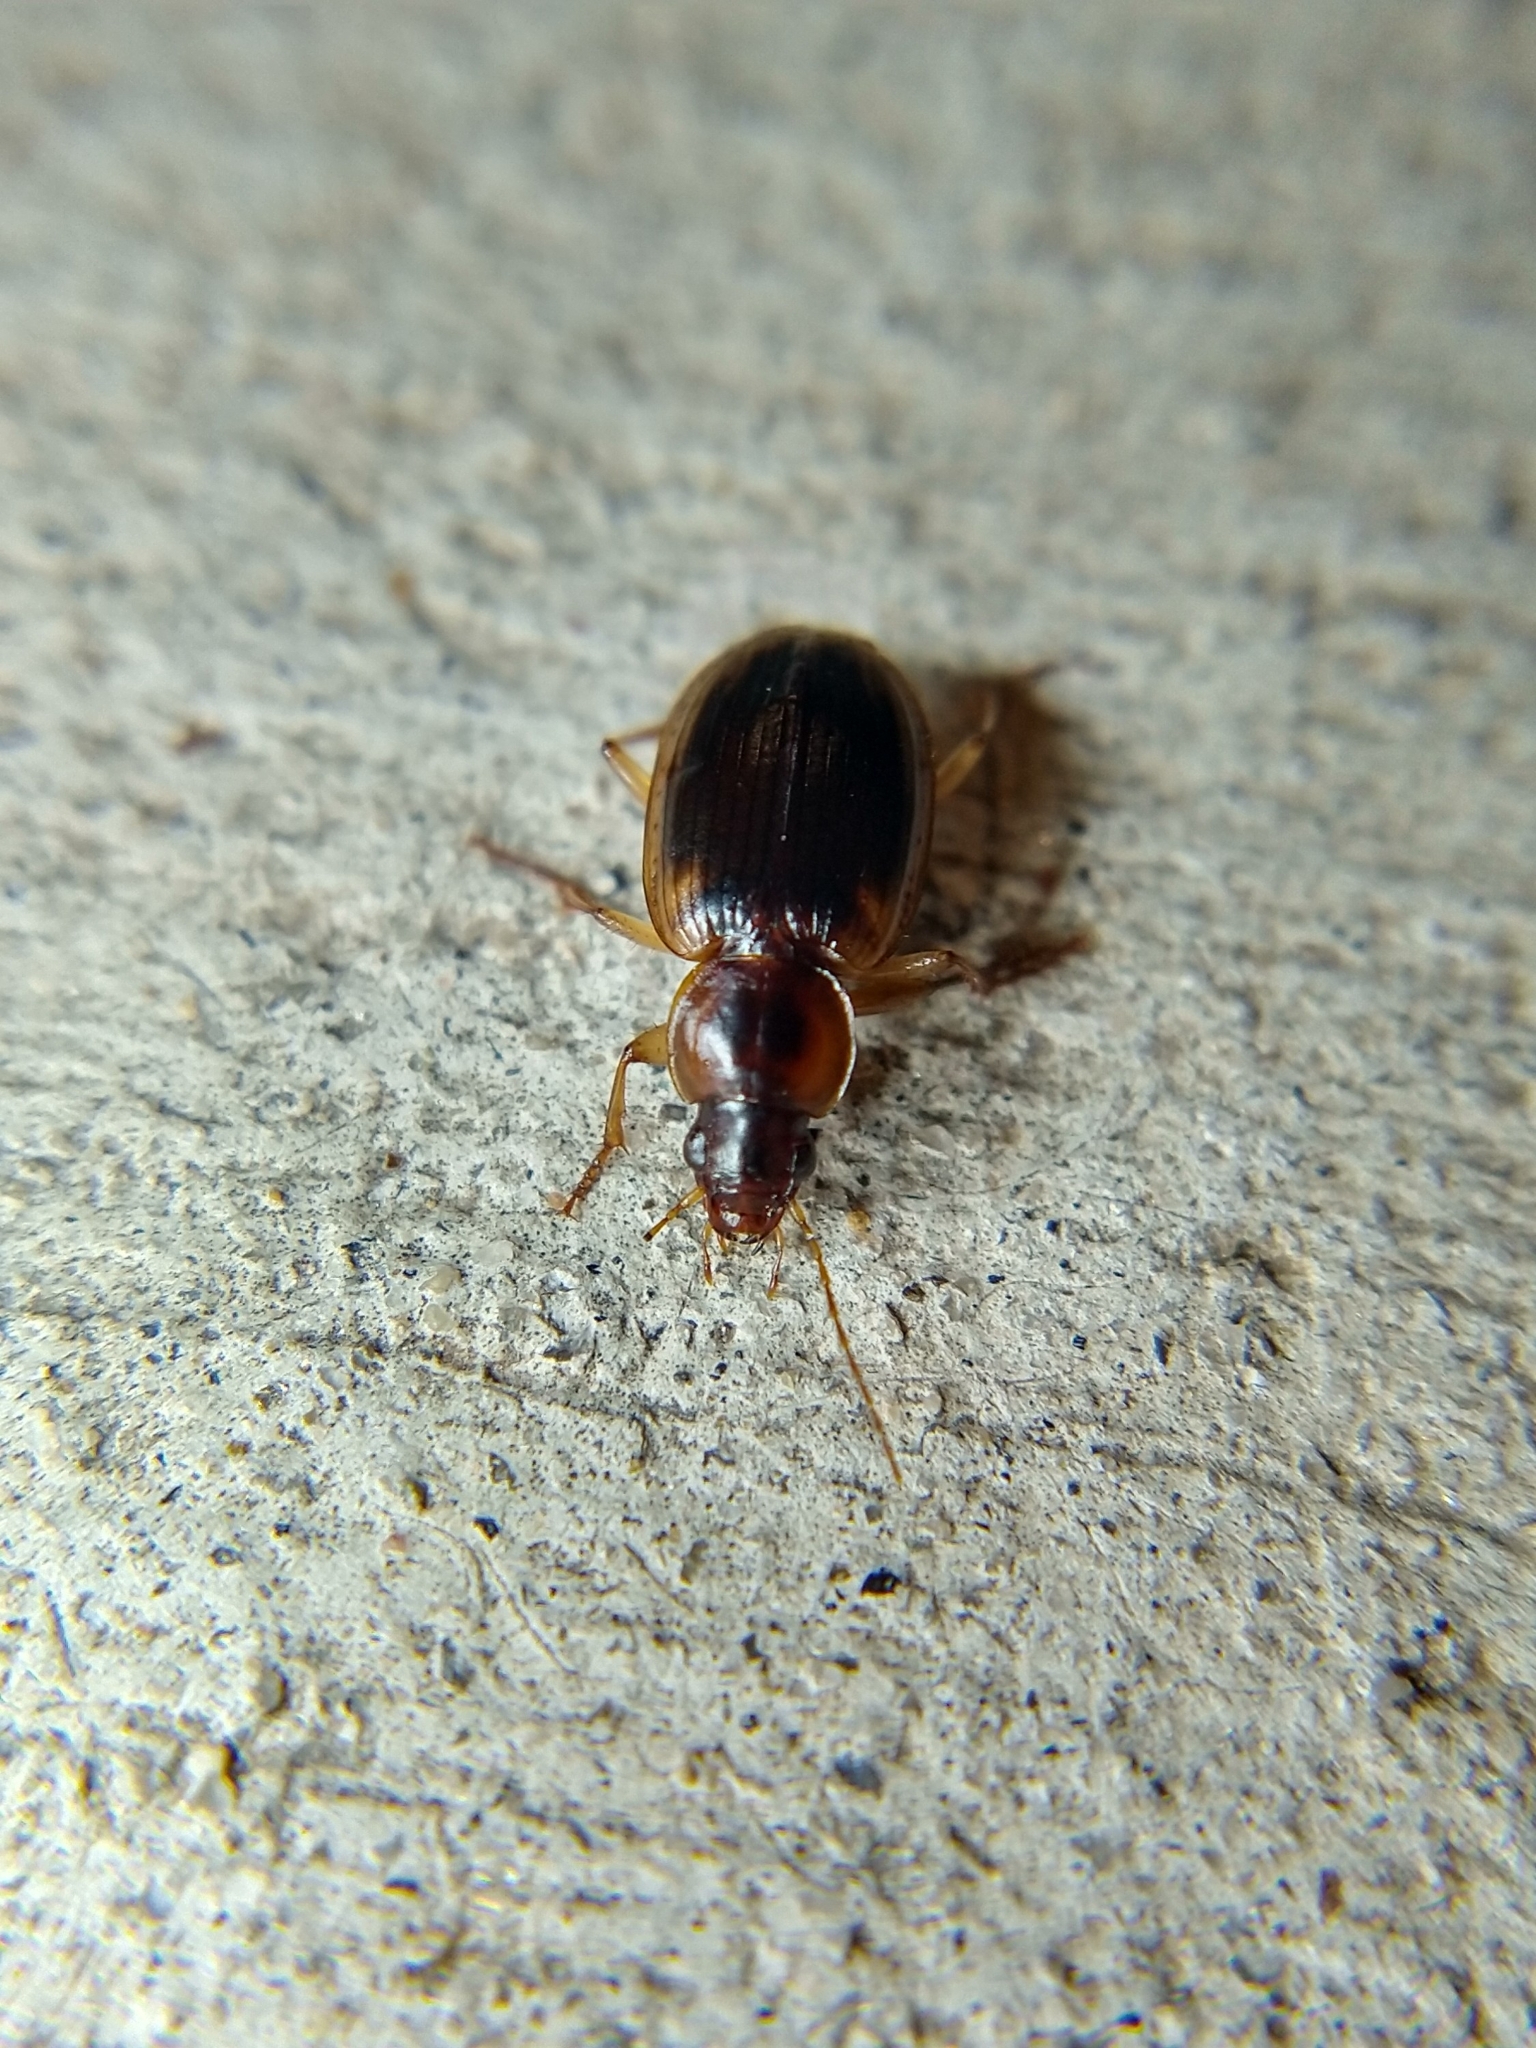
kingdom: Animalia
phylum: Arthropoda
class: Insecta
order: Coleoptera
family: Carabidae
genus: Tanystoma
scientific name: Tanystoma maculicolle
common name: Tule beetle
